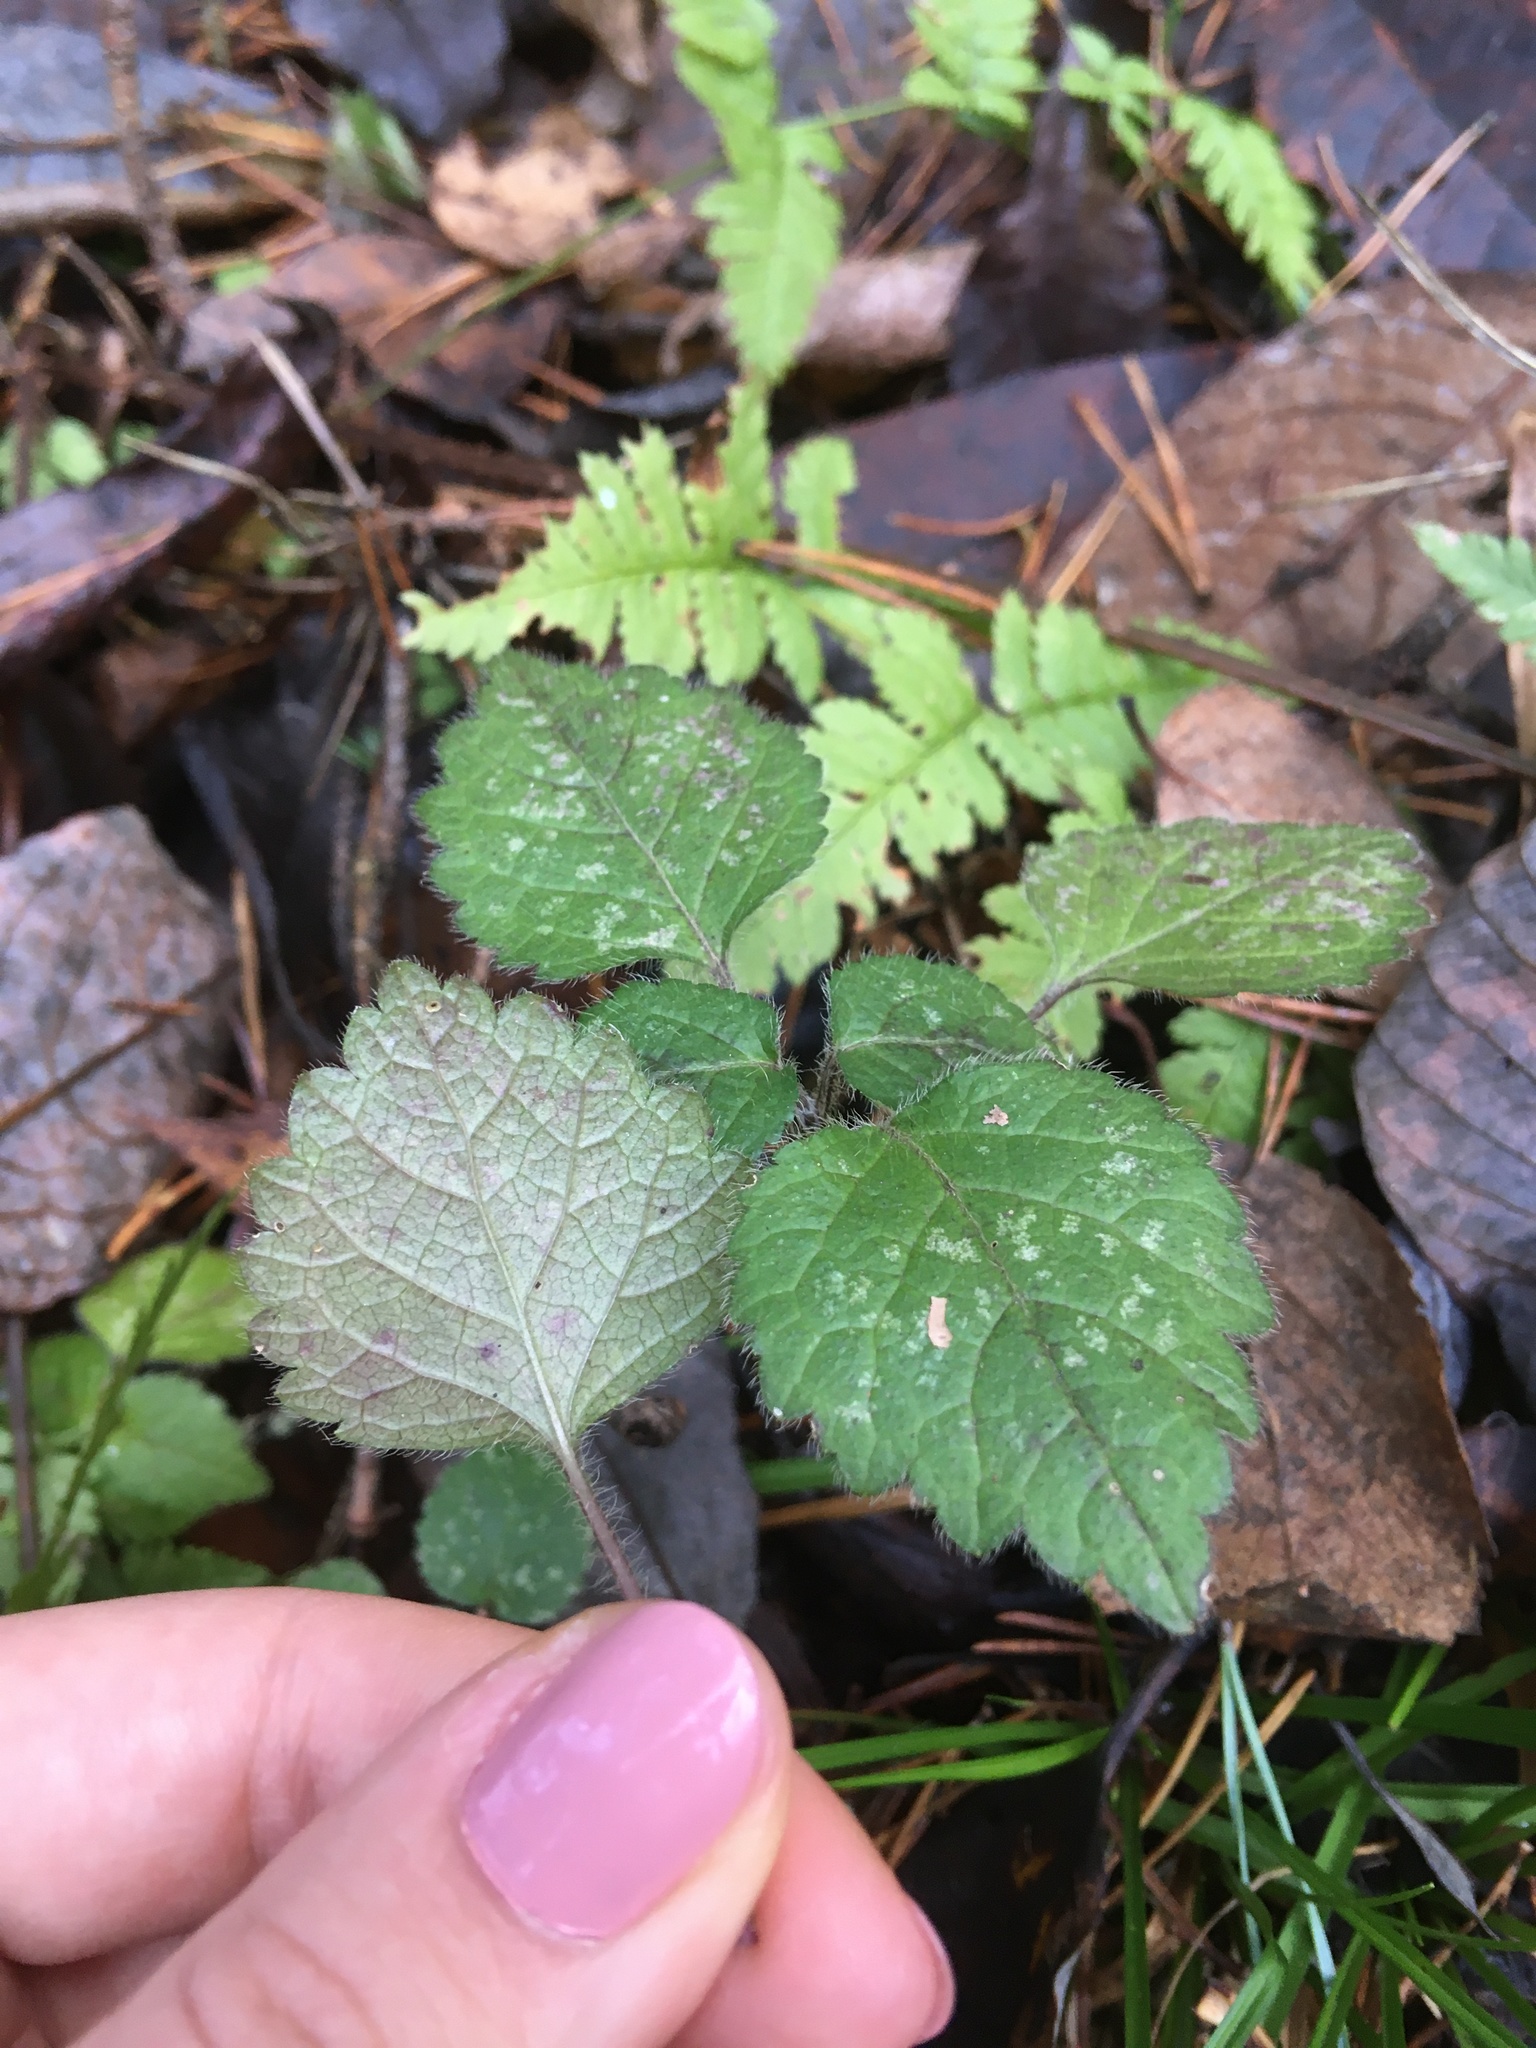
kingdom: Plantae
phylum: Tracheophyta
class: Magnoliopsida
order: Lamiales
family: Lamiaceae
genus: Lamium
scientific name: Lamium galeobdolon
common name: Yellow archangel
